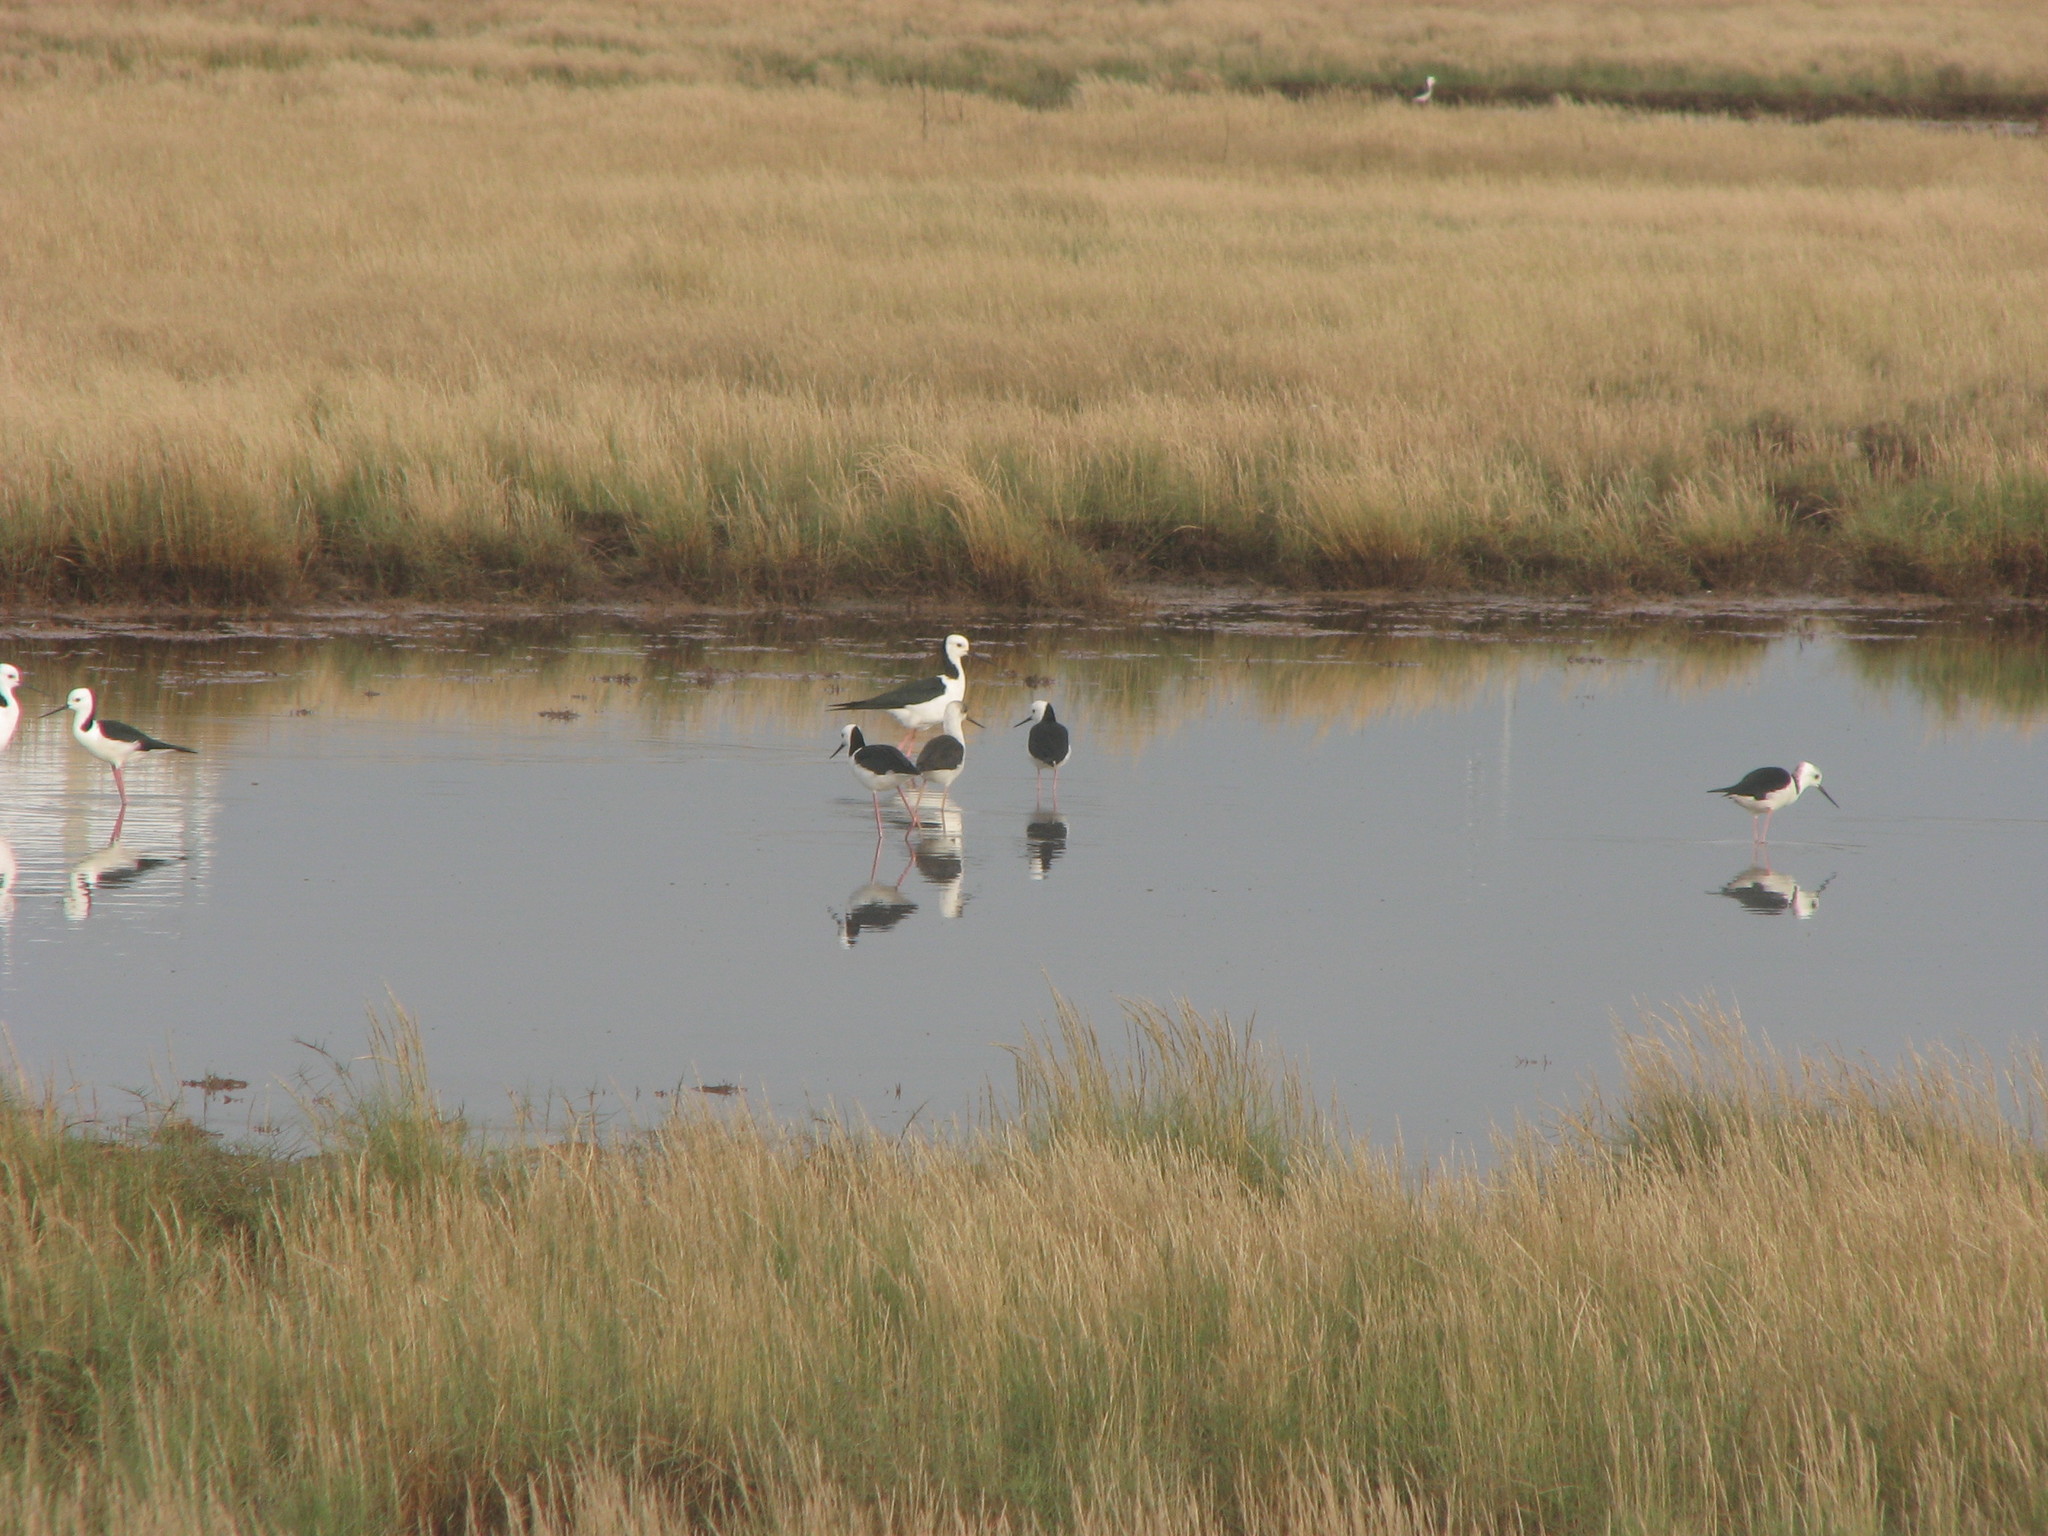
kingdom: Animalia
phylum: Chordata
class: Aves
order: Charadriiformes
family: Recurvirostridae
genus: Himantopus
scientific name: Himantopus leucocephalus
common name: White-headed stilt
